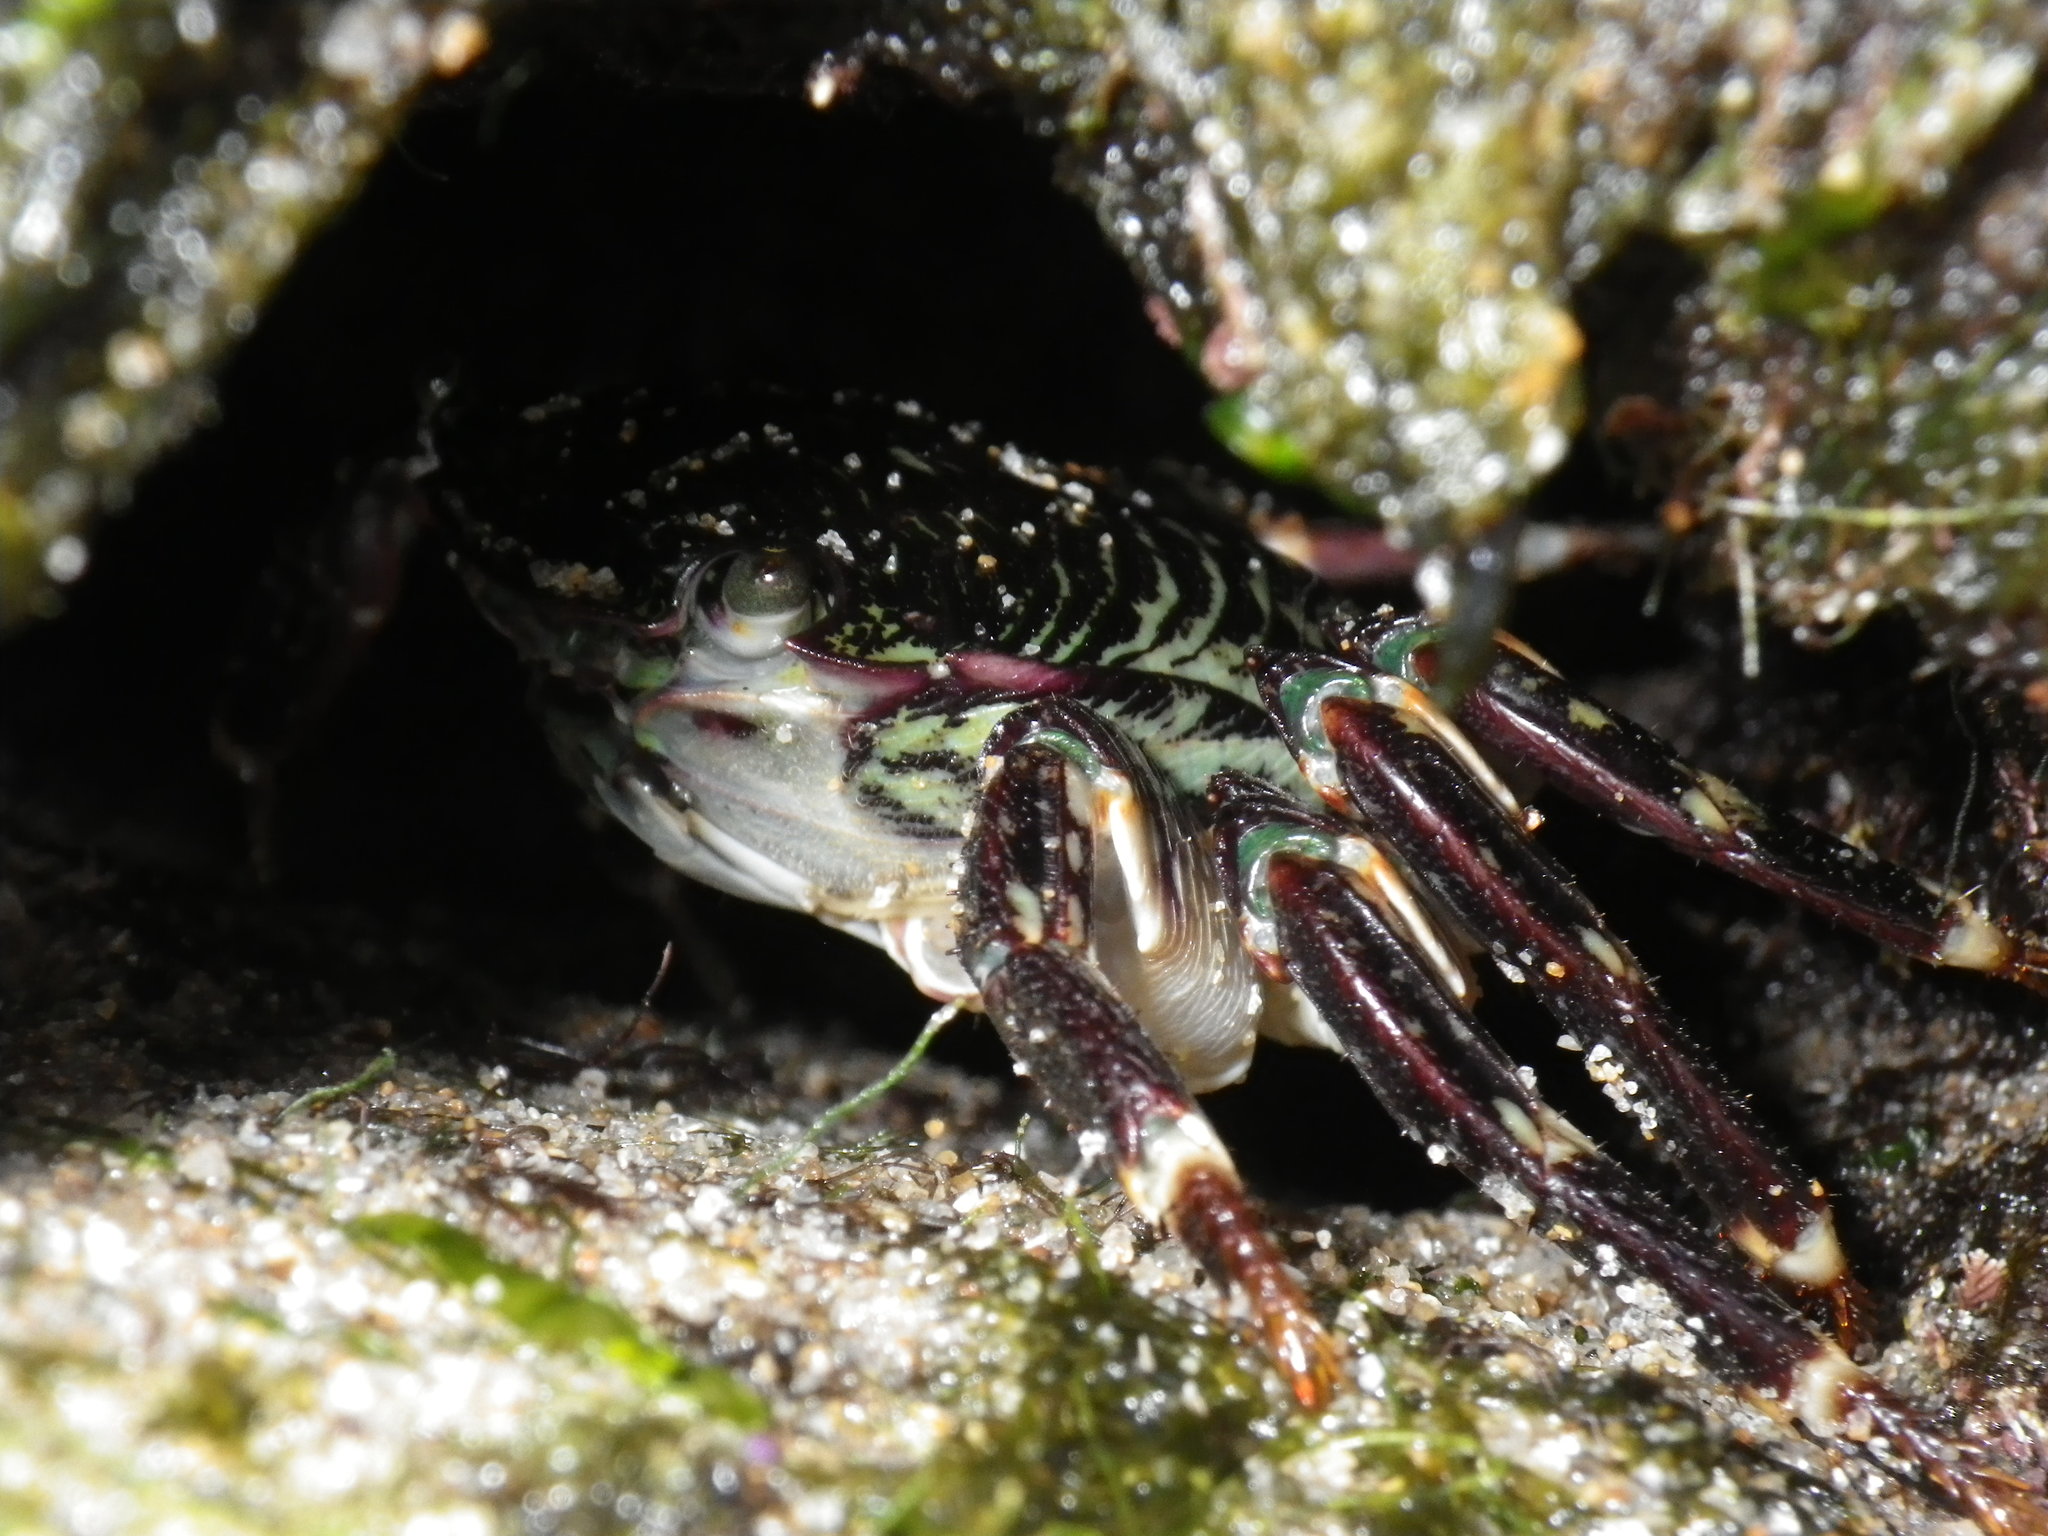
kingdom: Animalia
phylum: Arthropoda
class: Malacostraca
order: Decapoda
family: Grapsidae
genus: Pachygrapsus
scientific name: Pachygrapsus crassipes
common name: Striped shore crab
